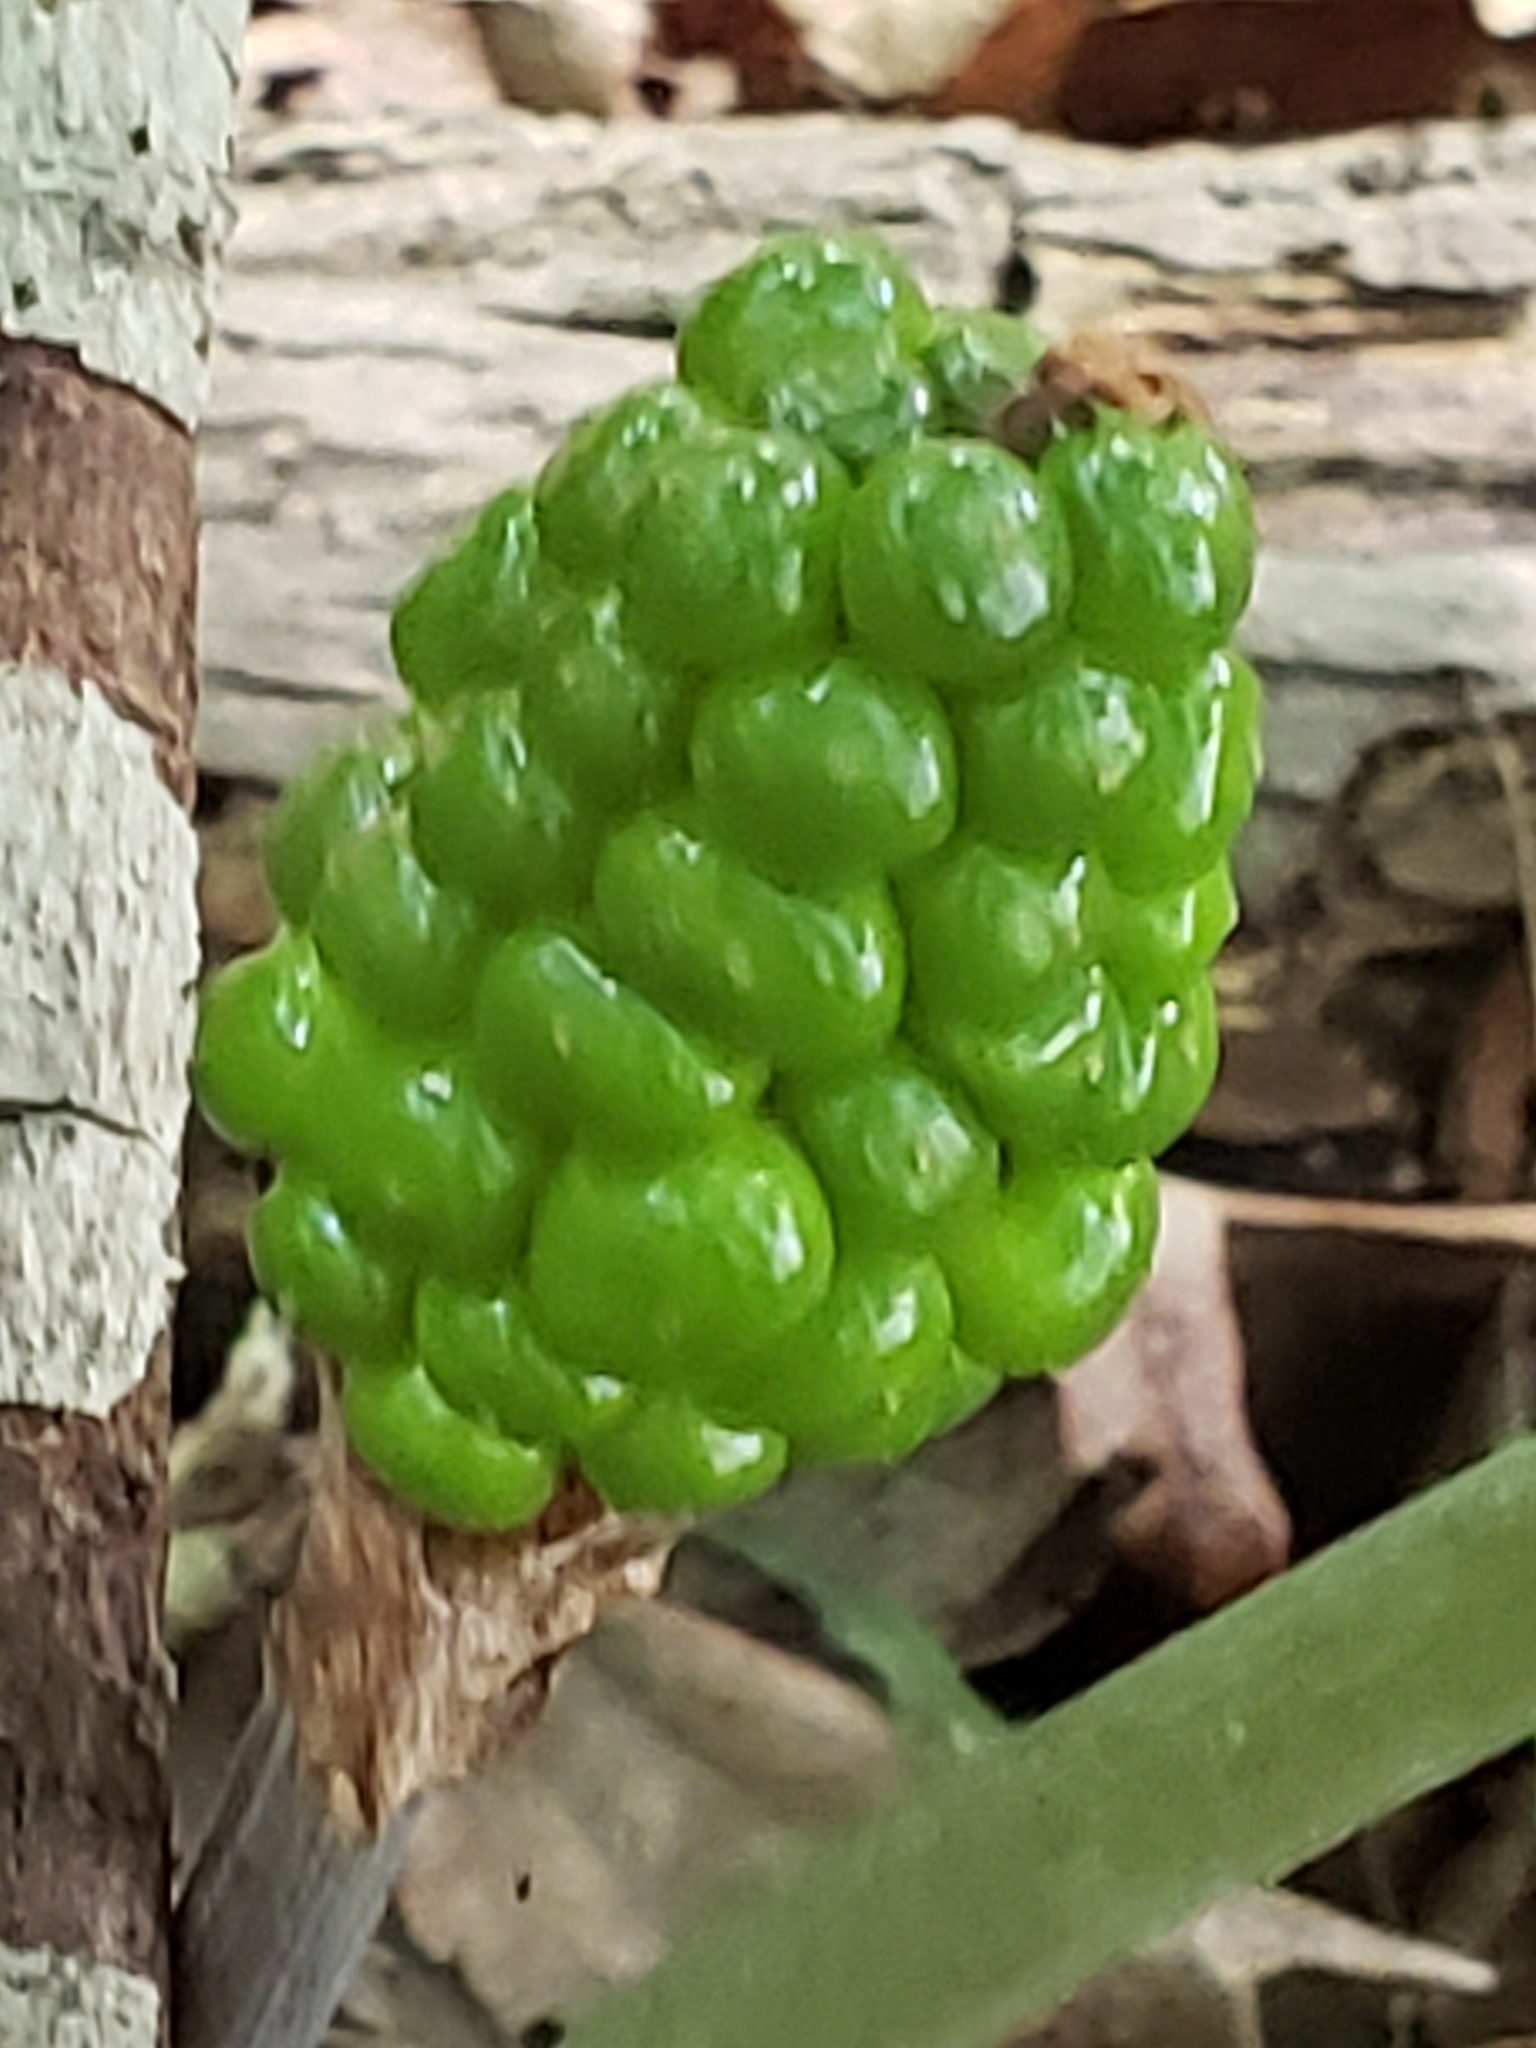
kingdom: Plantae
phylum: Tracheophyta
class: Liliopsida
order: Alismatales
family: Araceae
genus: Arisaema
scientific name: Arisaema triphyllum
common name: Jack-in-the-pulpit
